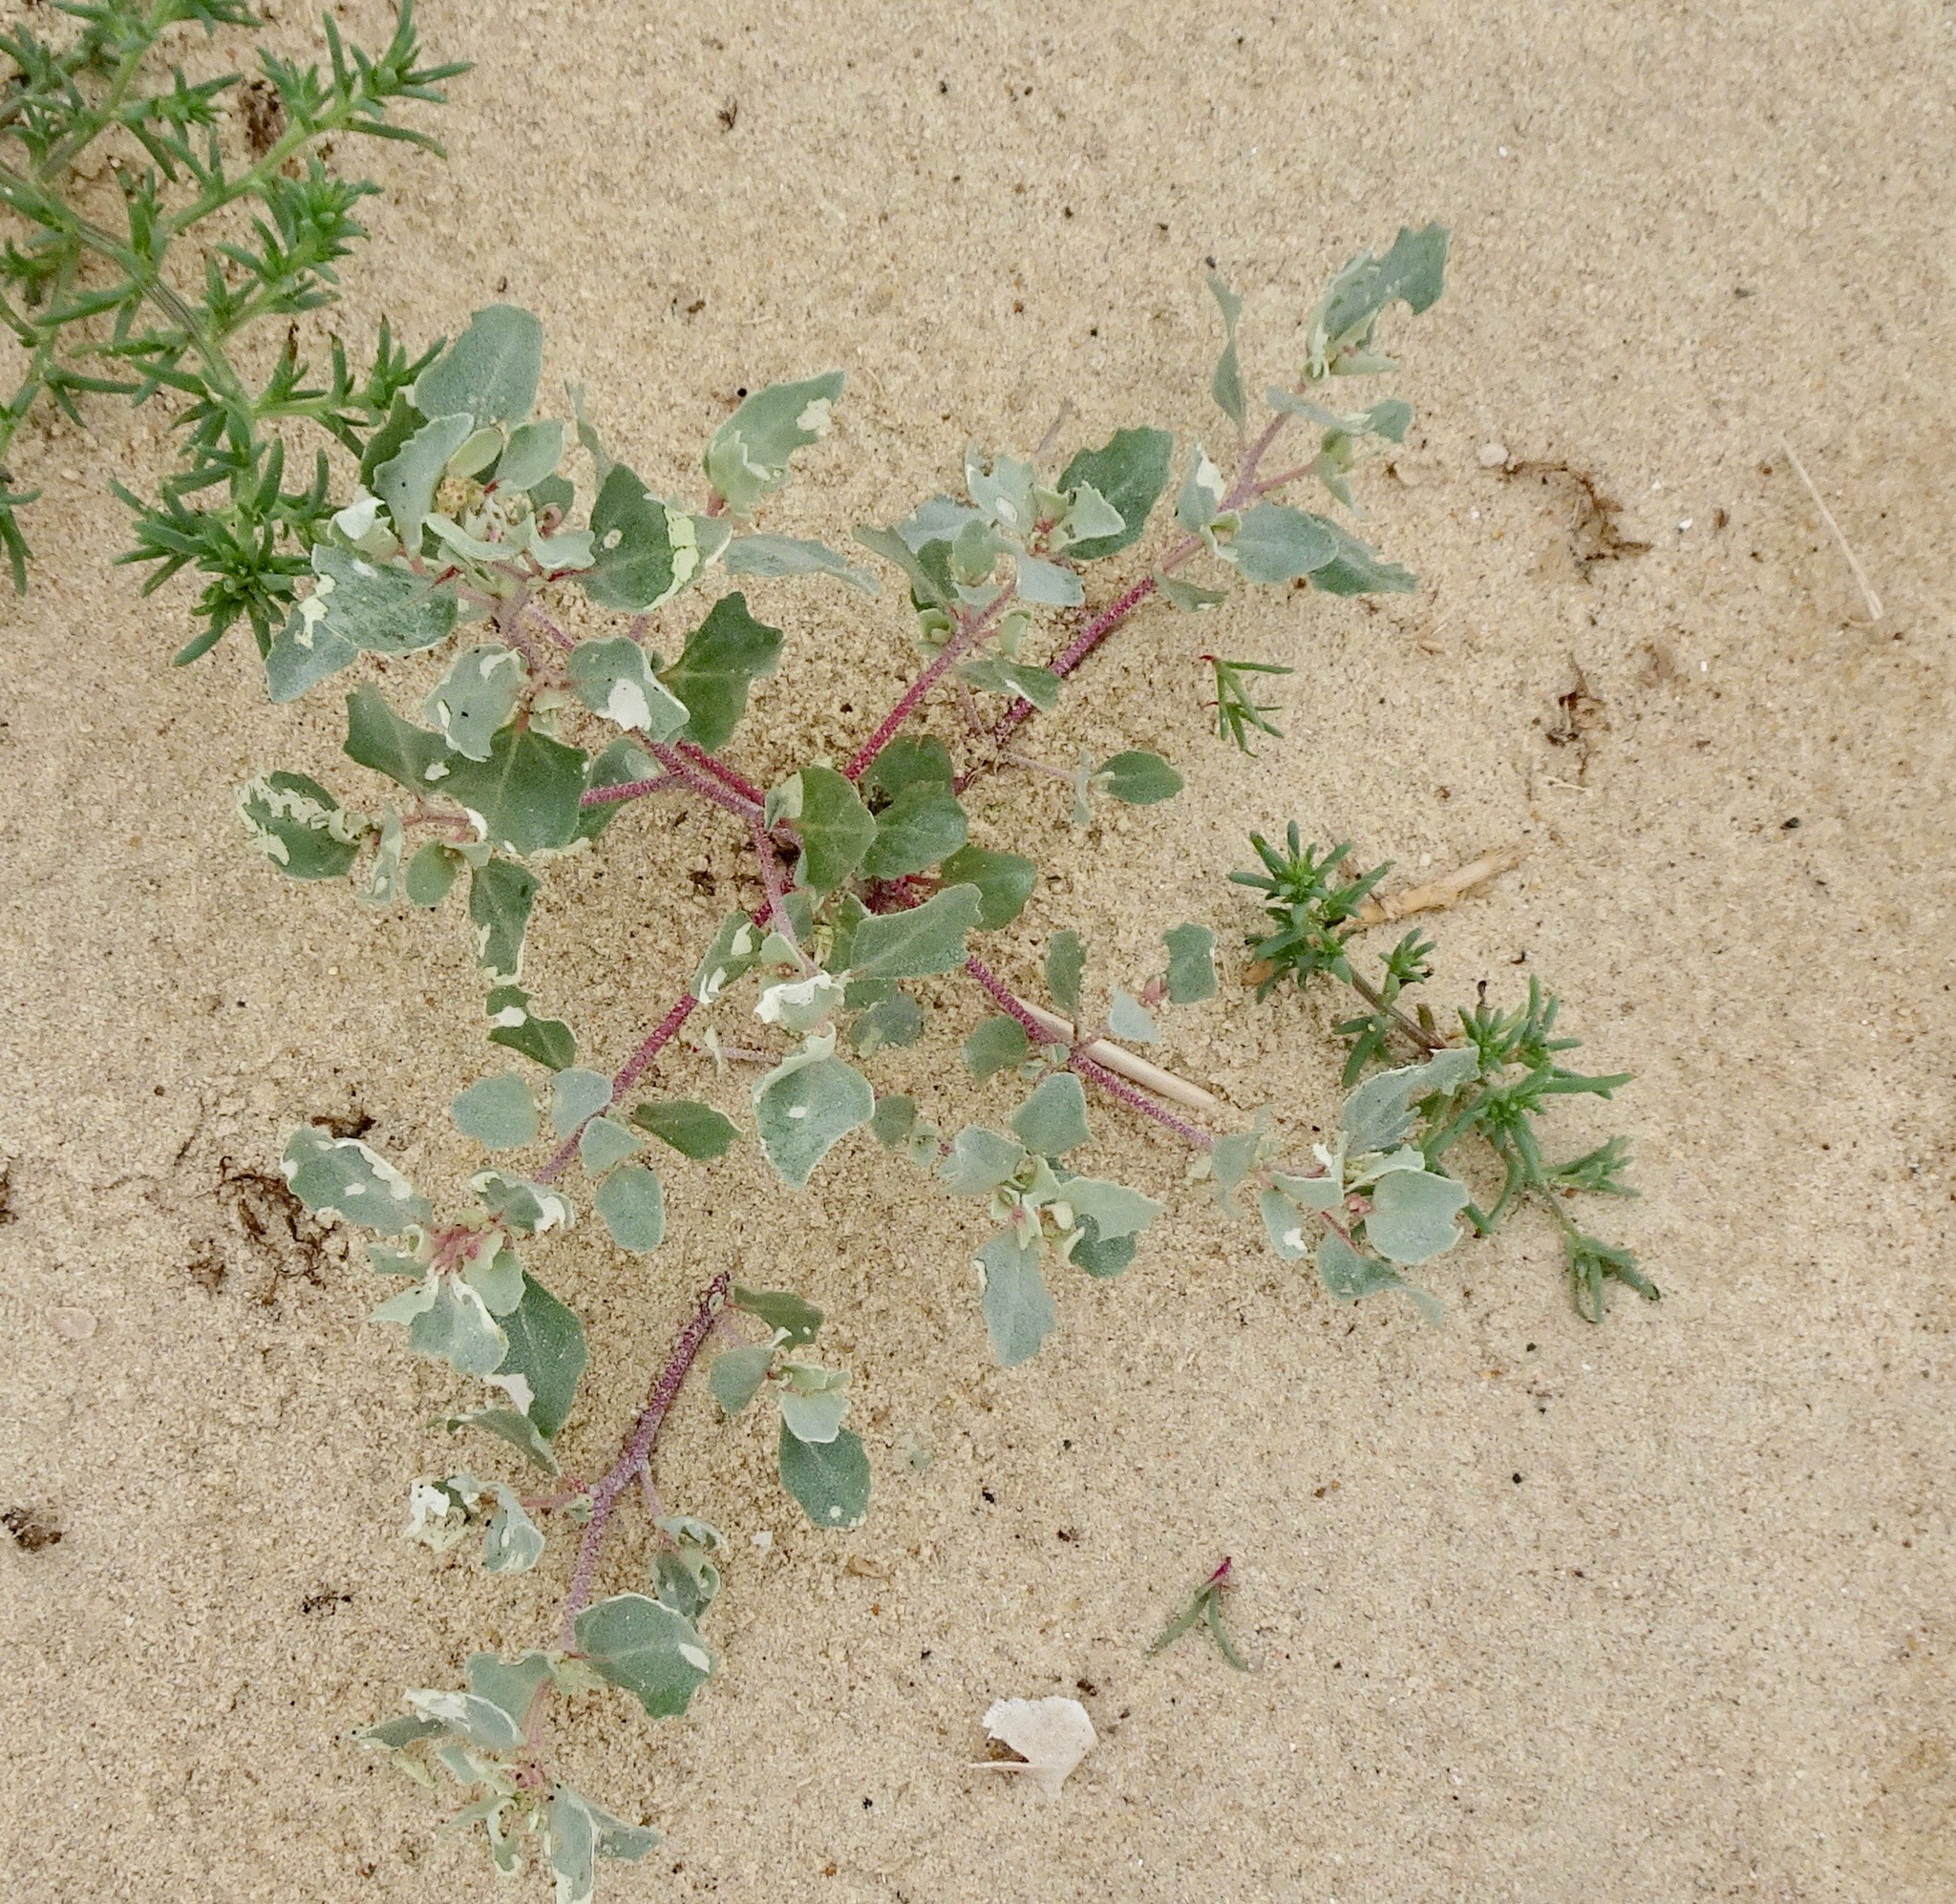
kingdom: Plantae
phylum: Tracheophyta
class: Magnoliopsida
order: Caryophyllales
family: Amaranthaceae
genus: Atriplex
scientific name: Atriplex laciniata
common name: Frosted orache
